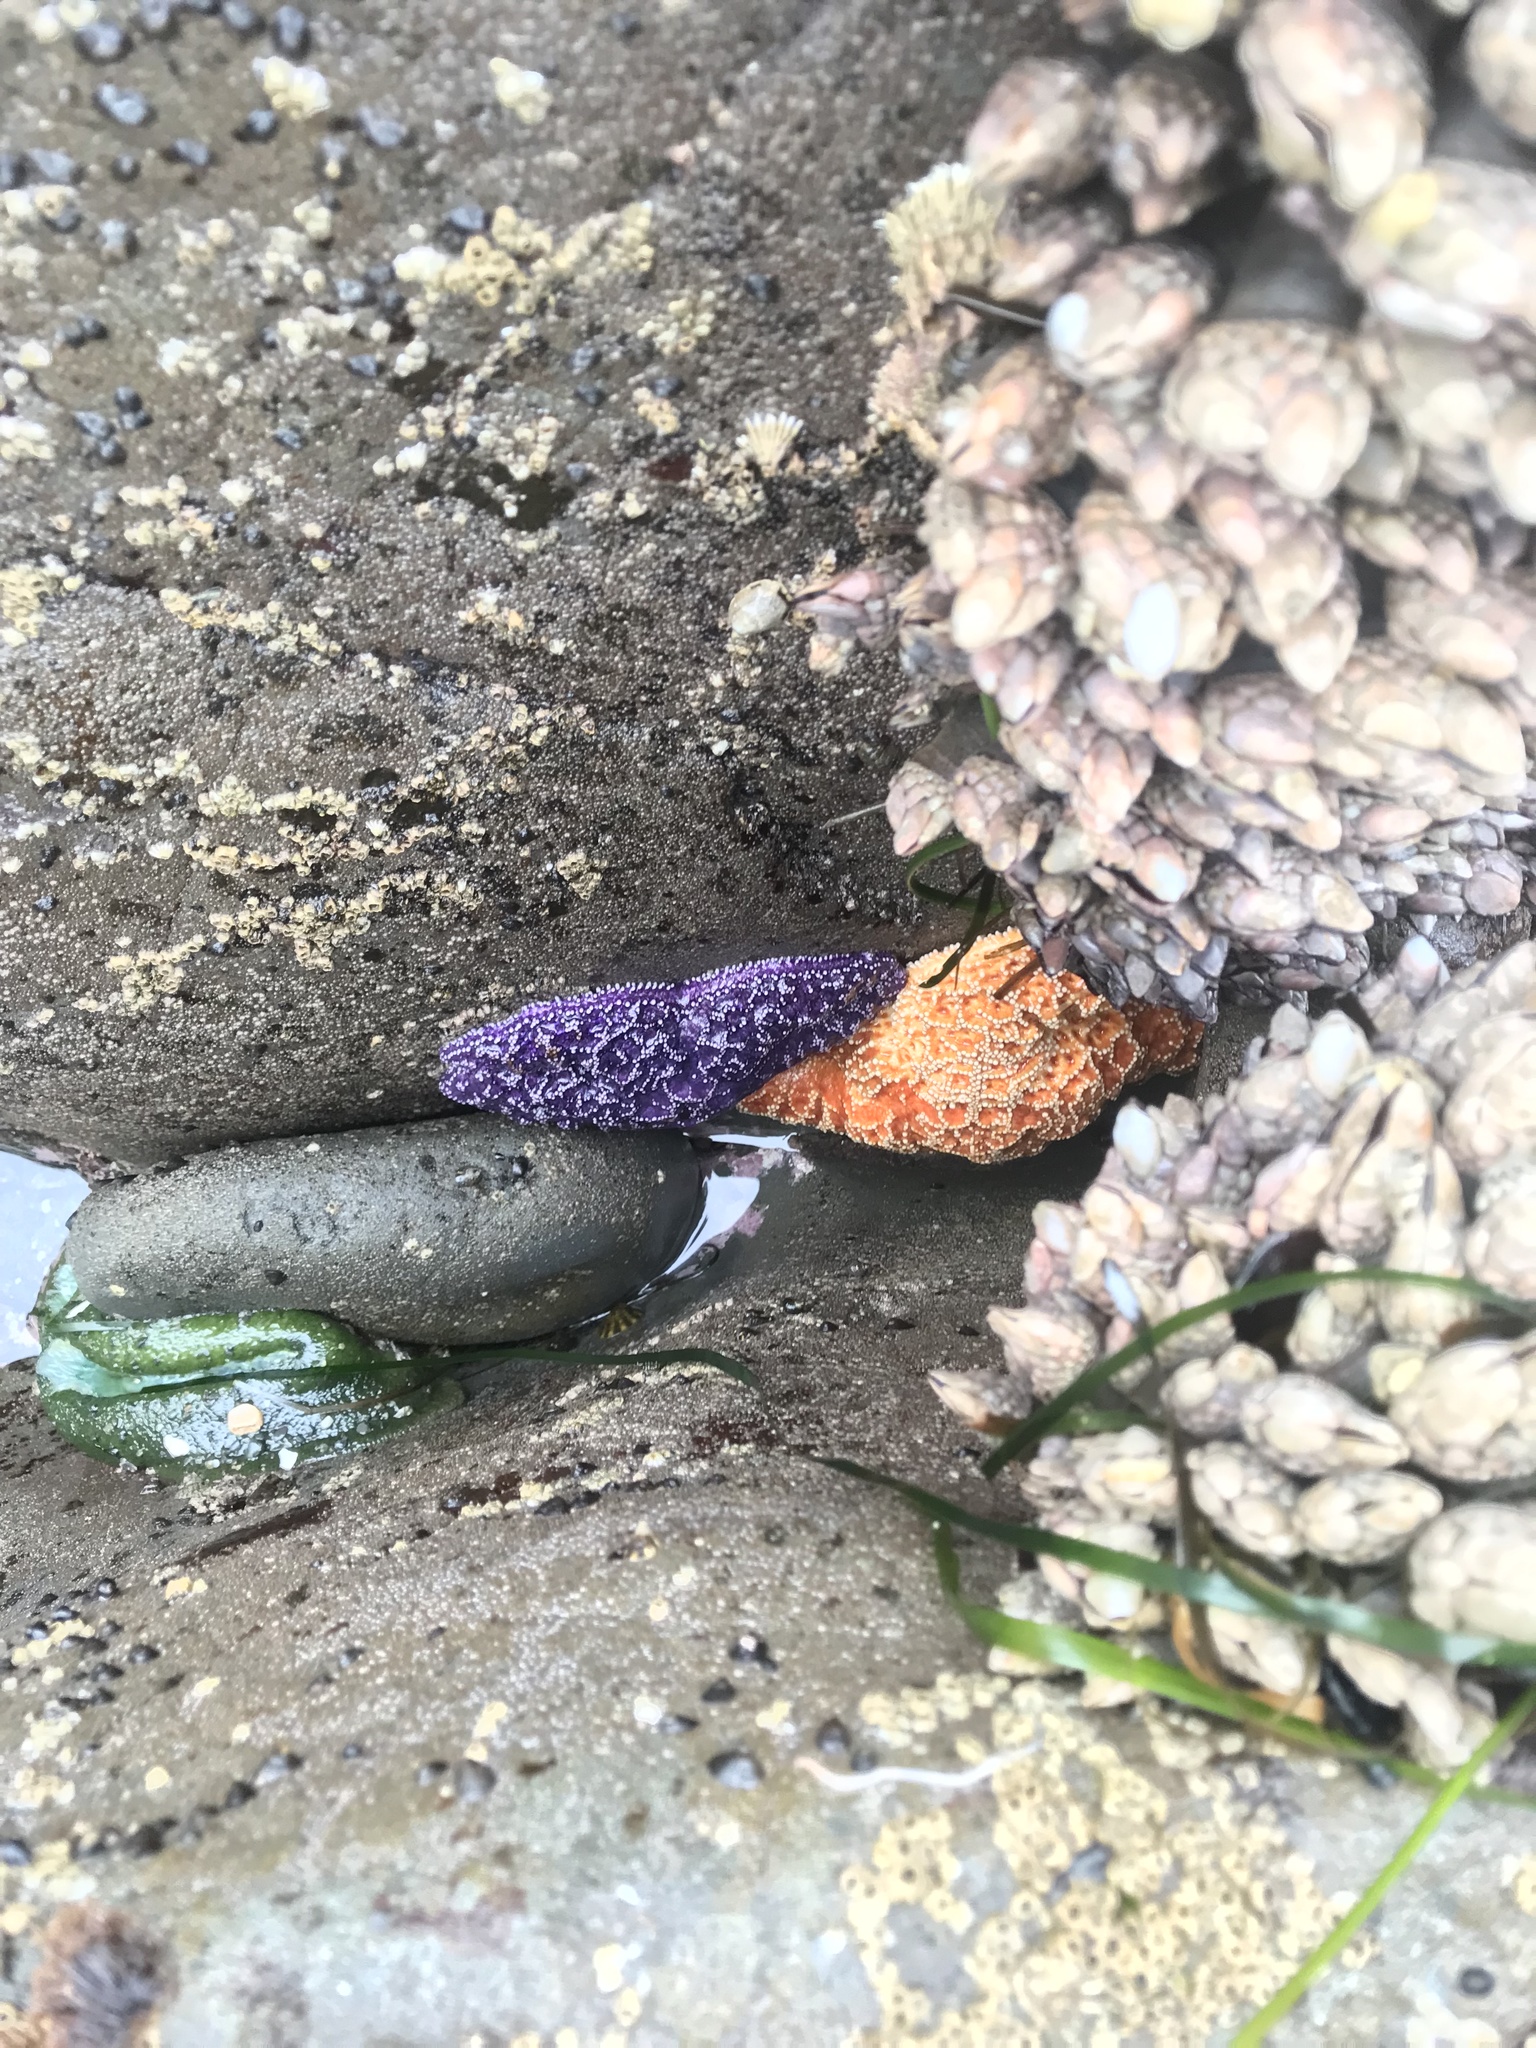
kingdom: Animalia
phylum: Echinodermata
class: Asteroidea
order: Forcipulatida
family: Asteriidae
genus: Pisaster
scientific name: Pisaster ochraceus
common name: Ochre stars
